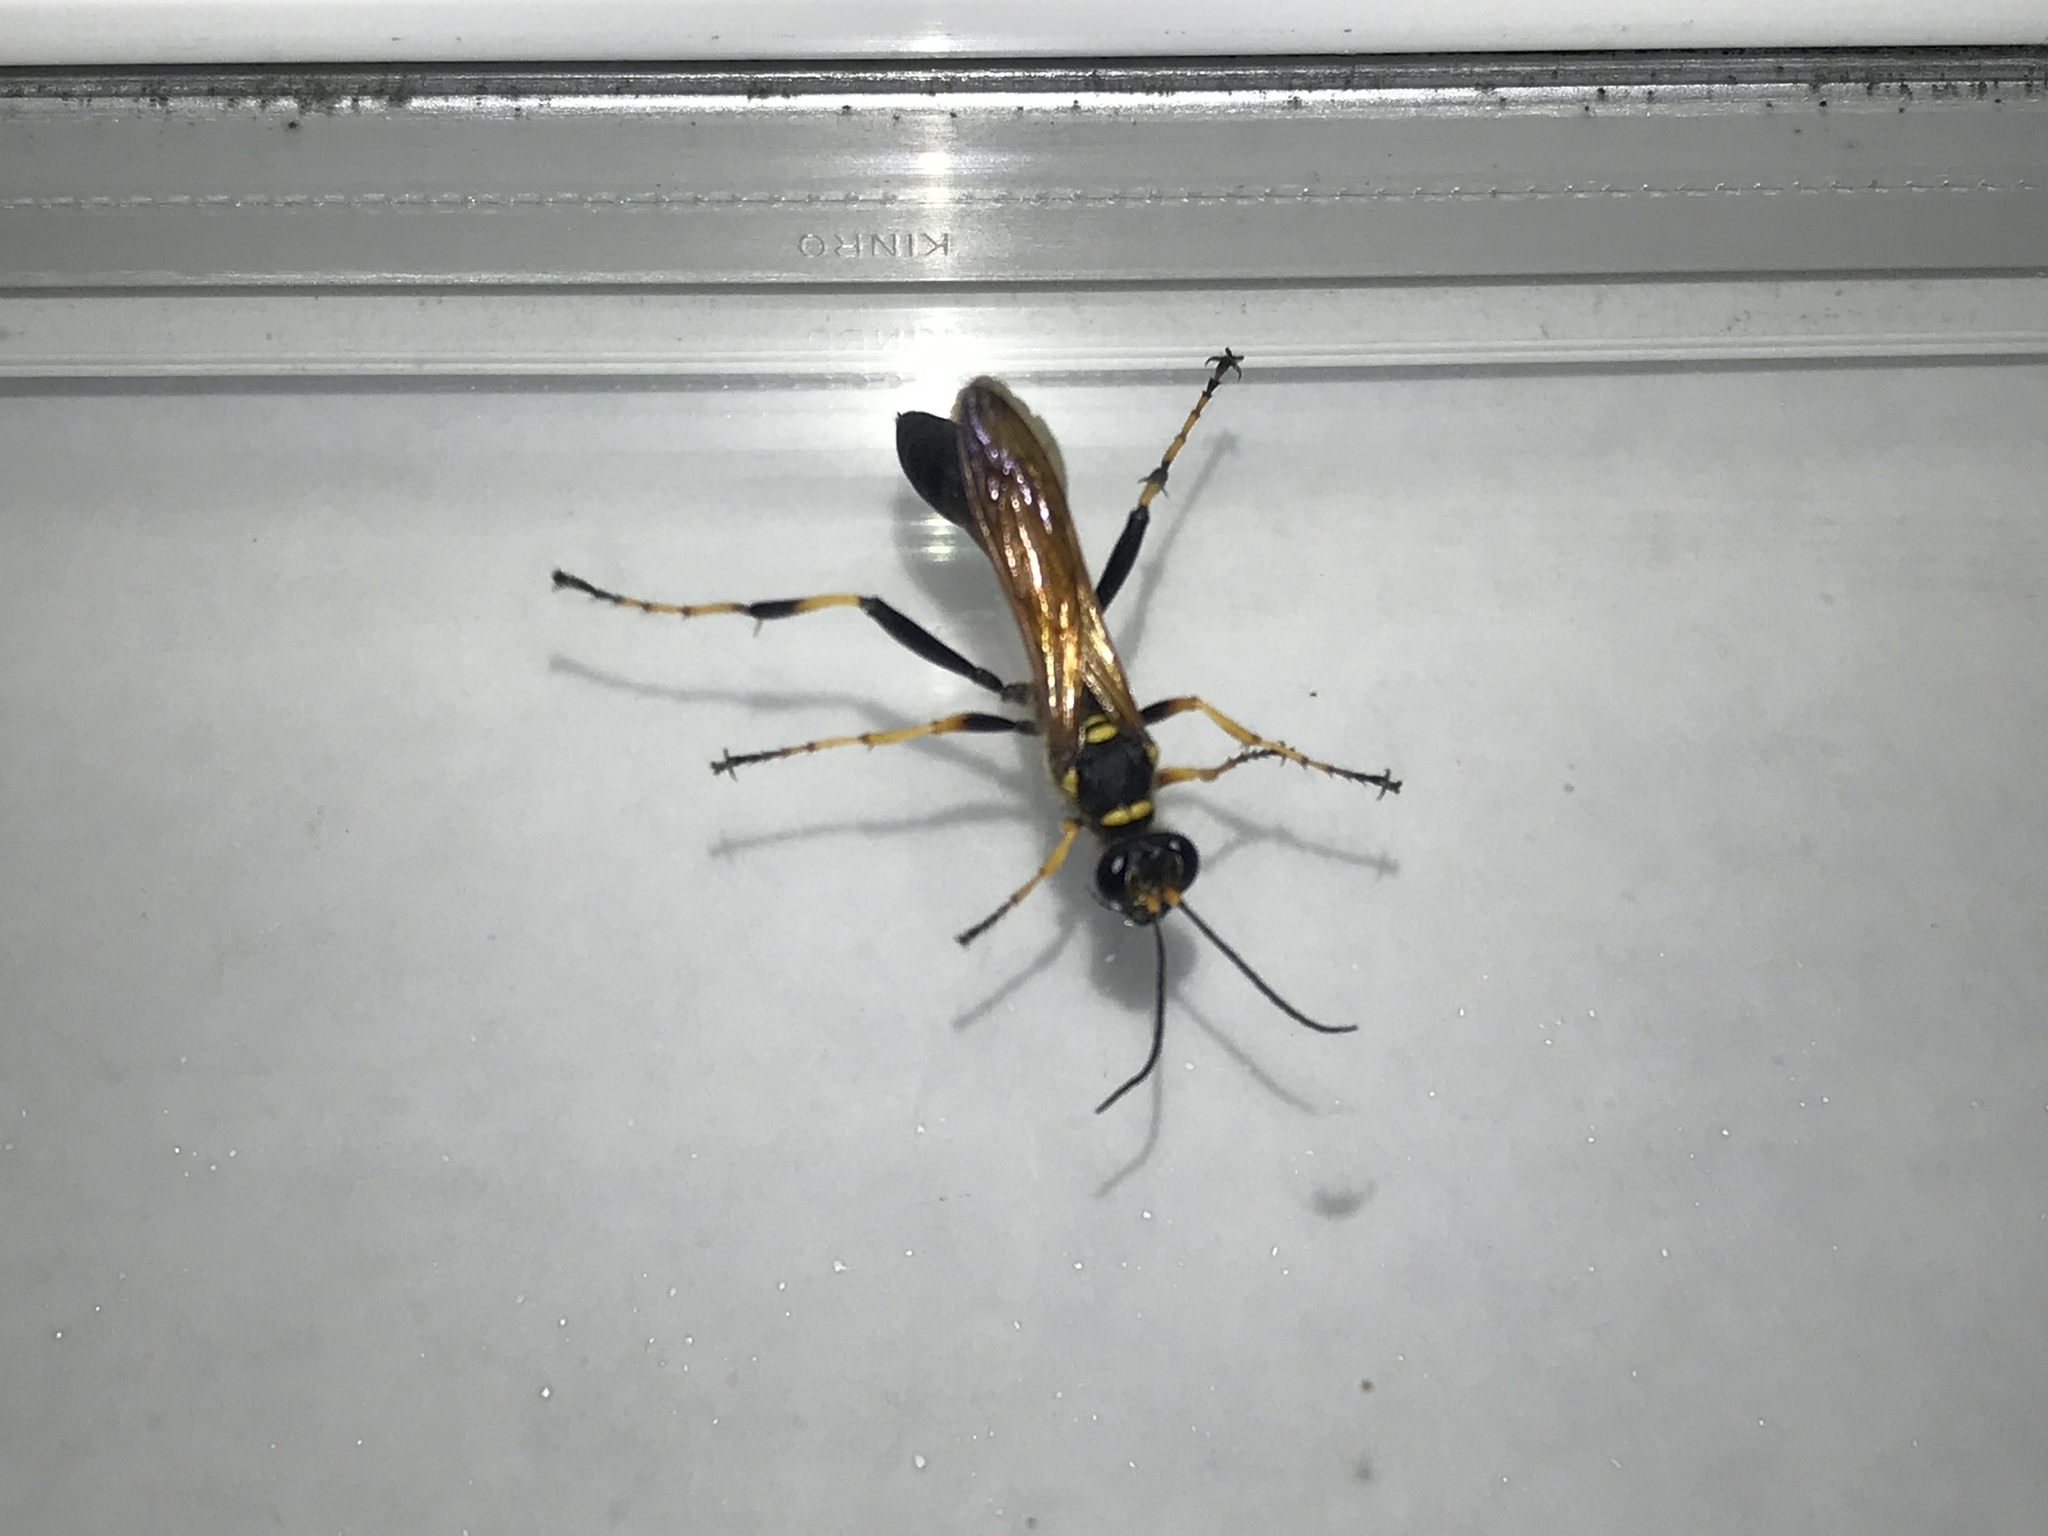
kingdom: Animalia
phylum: Arthropoda
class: Insecta
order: Hymenoptera
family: Sphecidae
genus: Sceliphron
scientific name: Sceliphron caementarium
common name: Mud dauber
